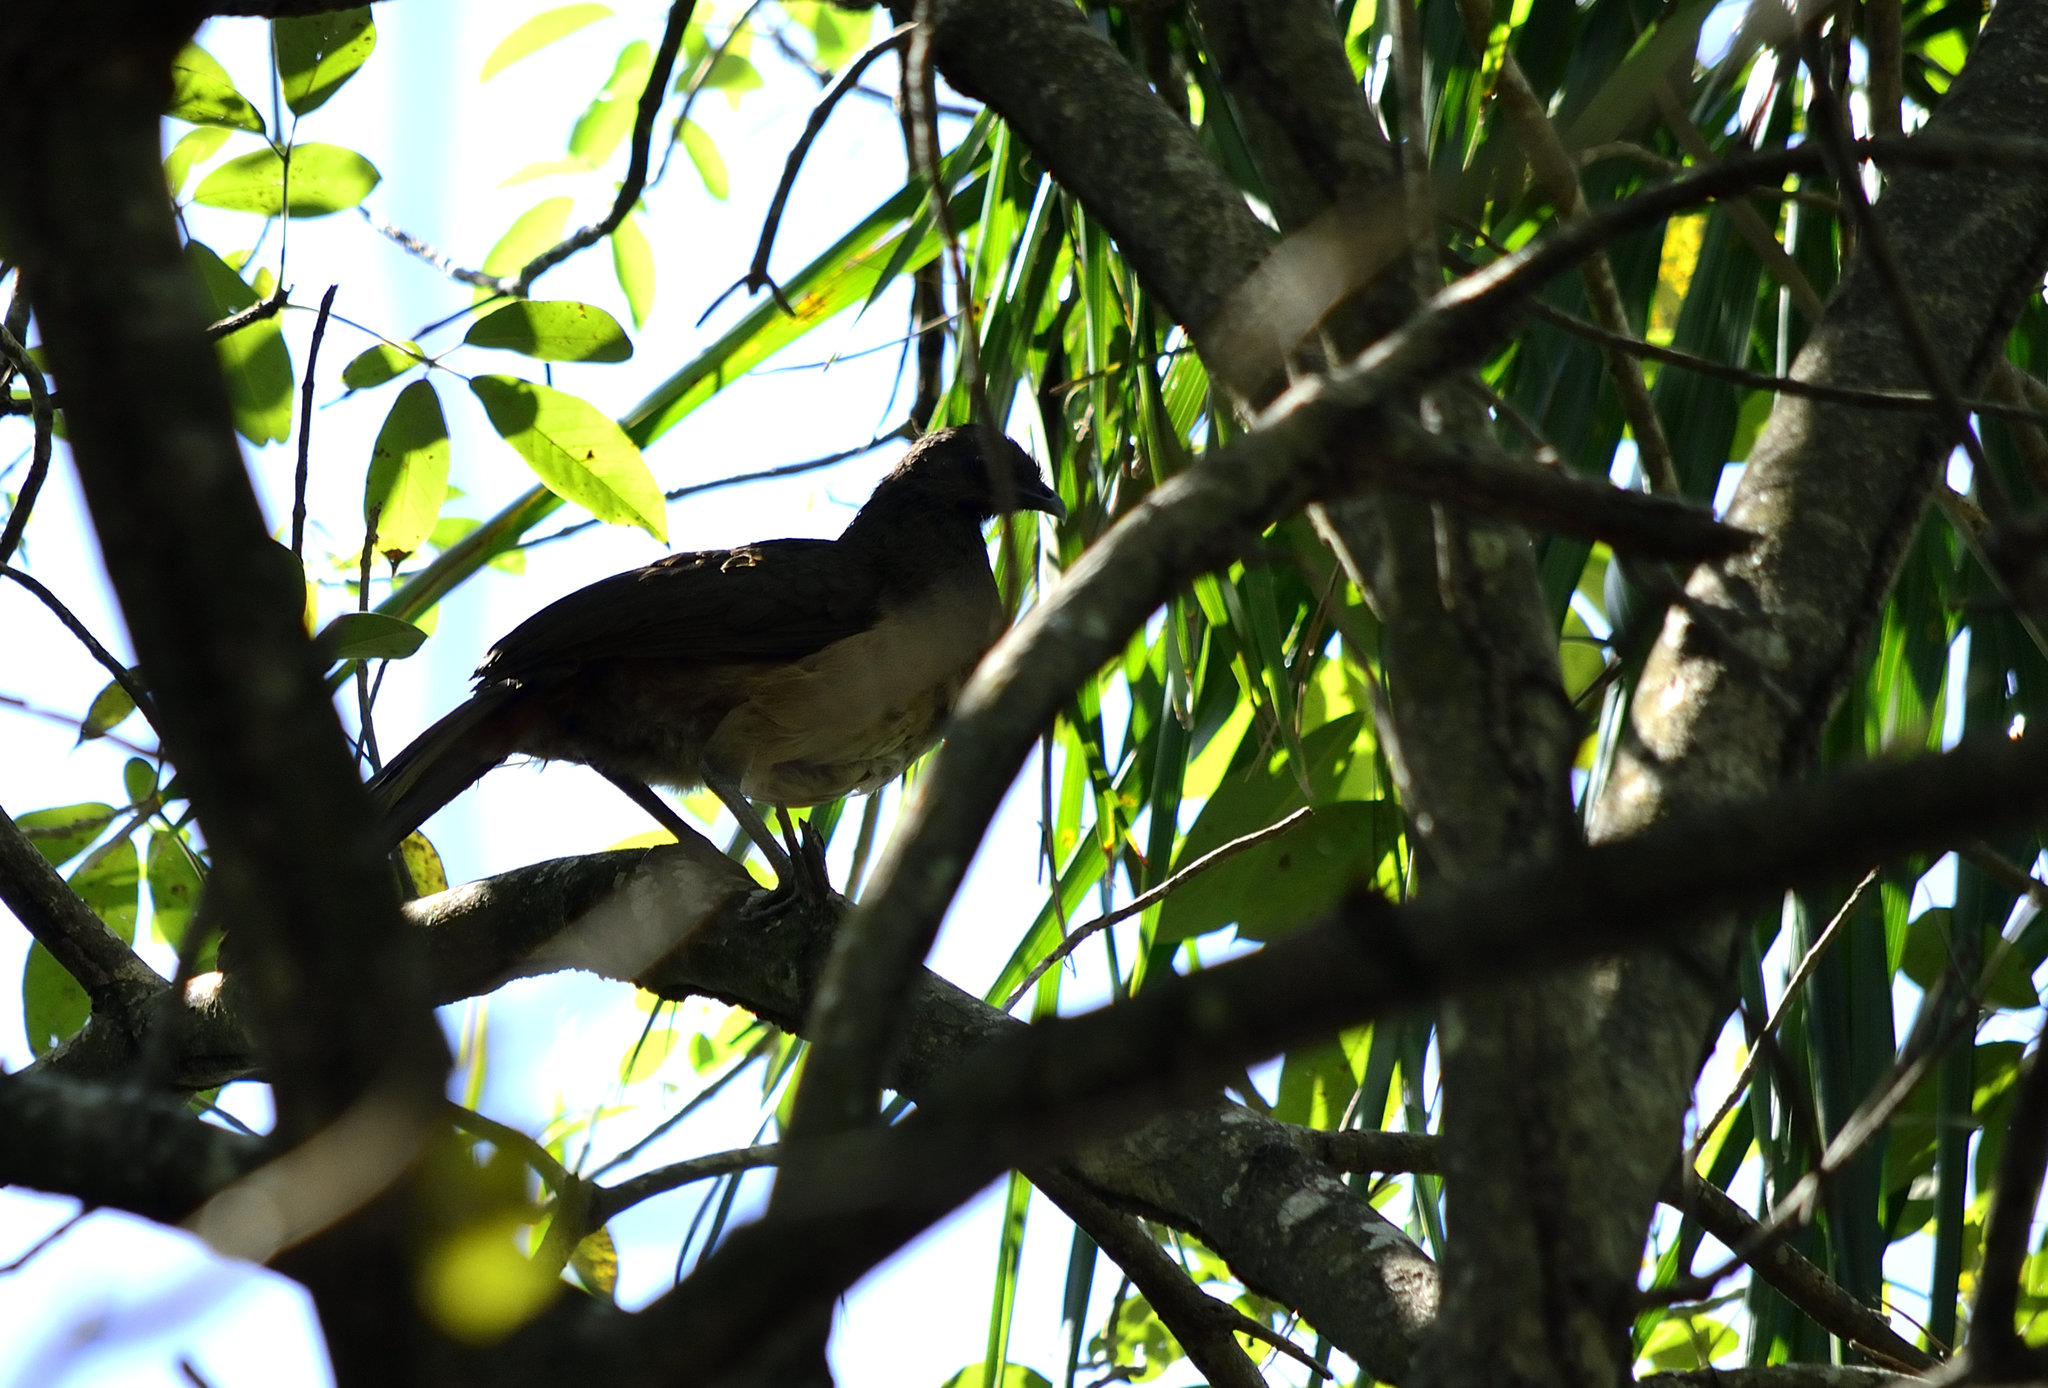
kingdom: Animalia
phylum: Chordata
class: Aves
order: Galliformes
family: Cracidae
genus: Ortalis
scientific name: Ortalis vetula
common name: Plain chachalaca
